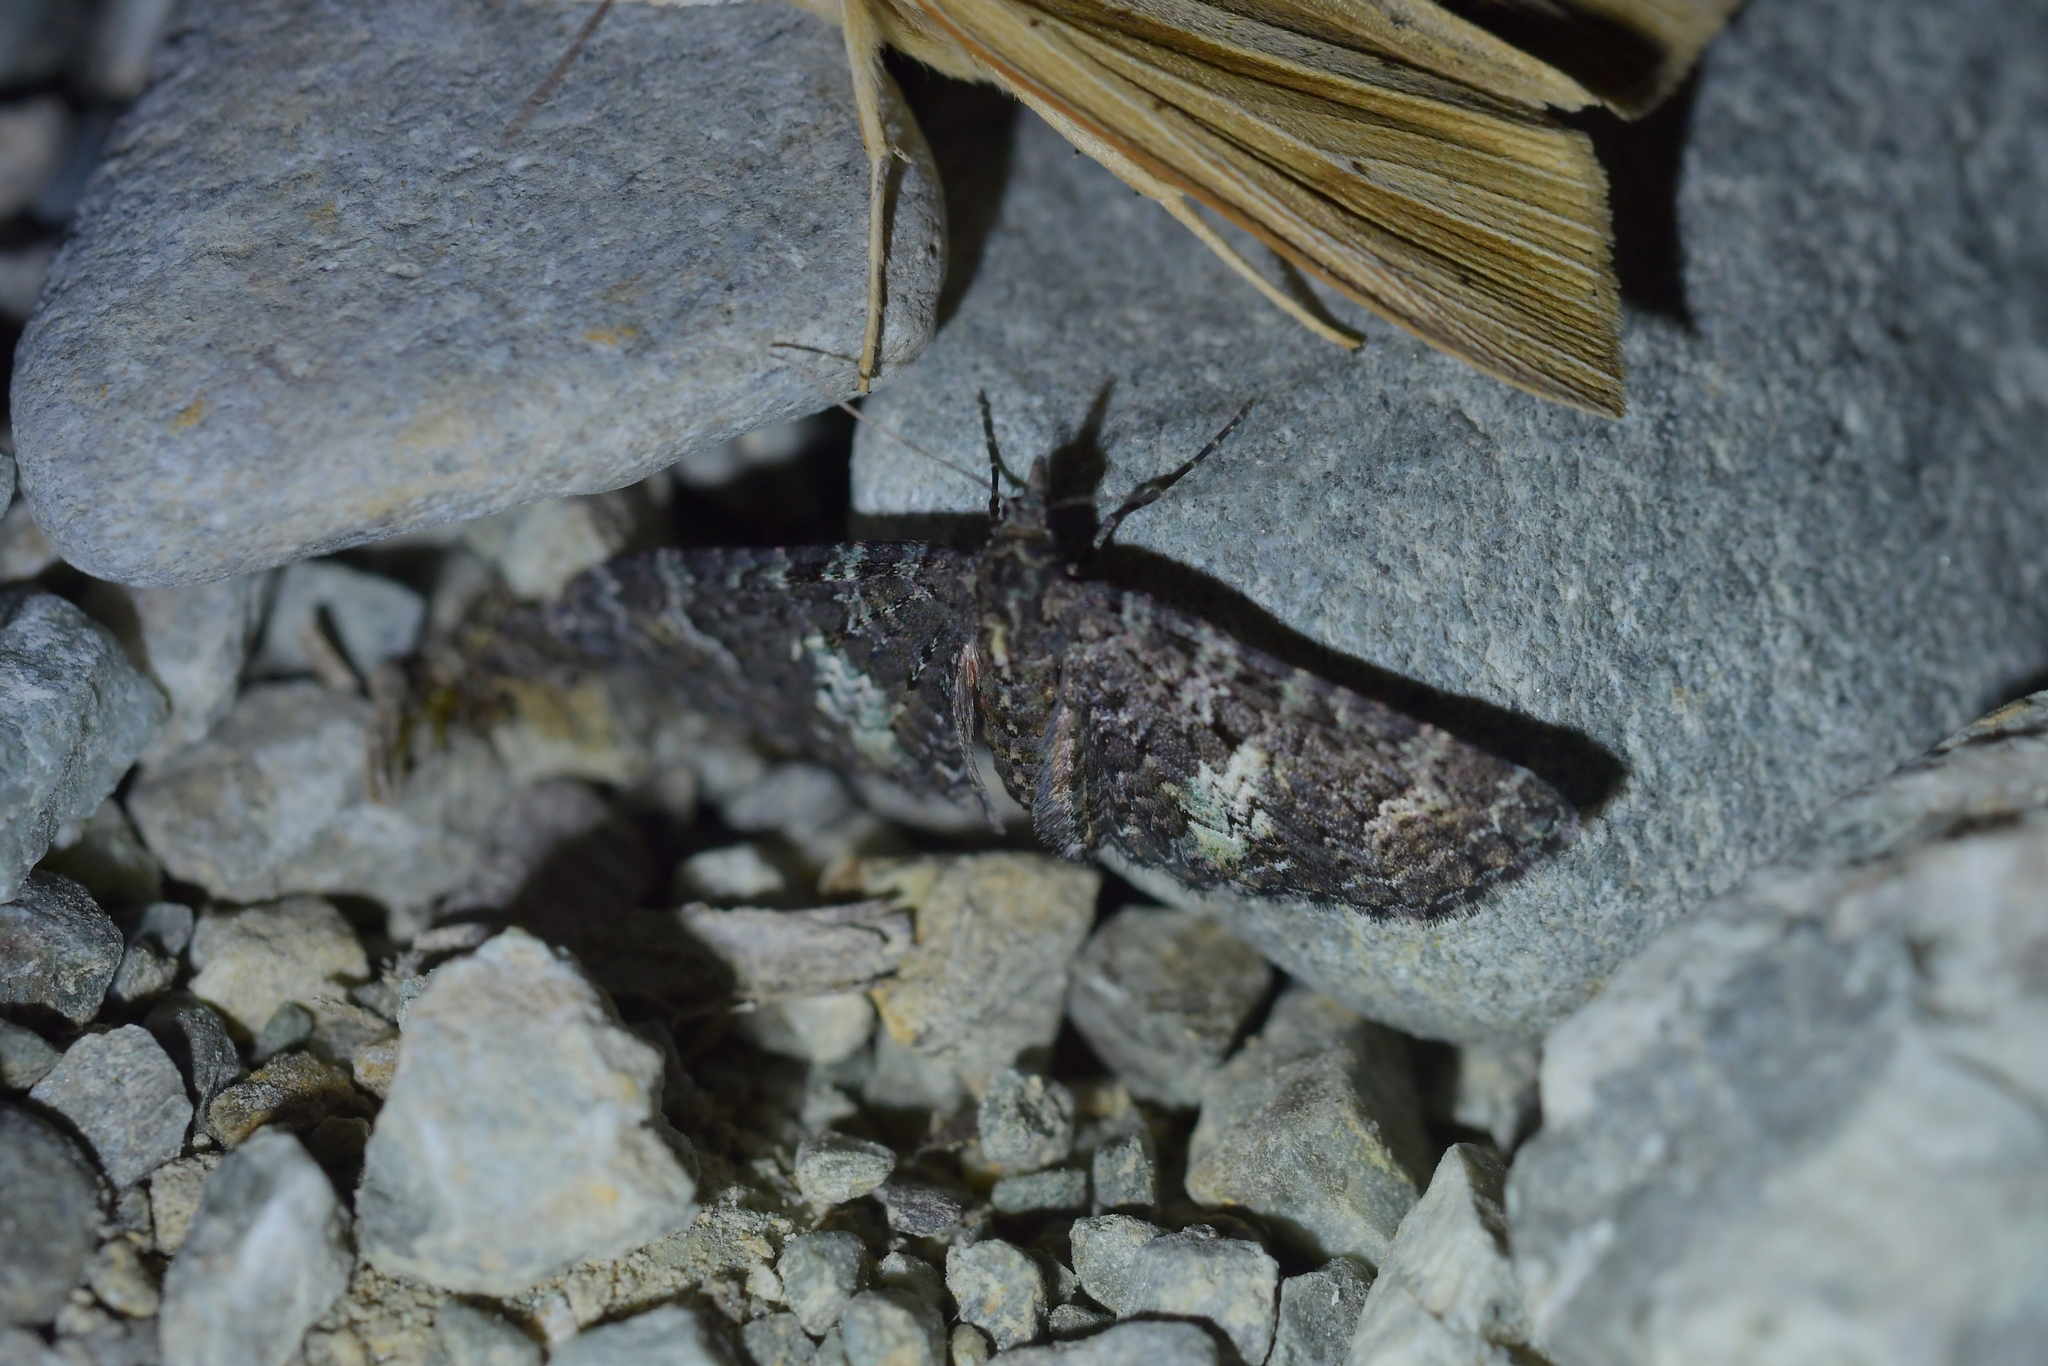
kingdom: Animalia
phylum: Arthropoda
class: Insecta
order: Lepidoptera
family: Geometridae
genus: Pasiphila
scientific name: Pasiphila rubella
